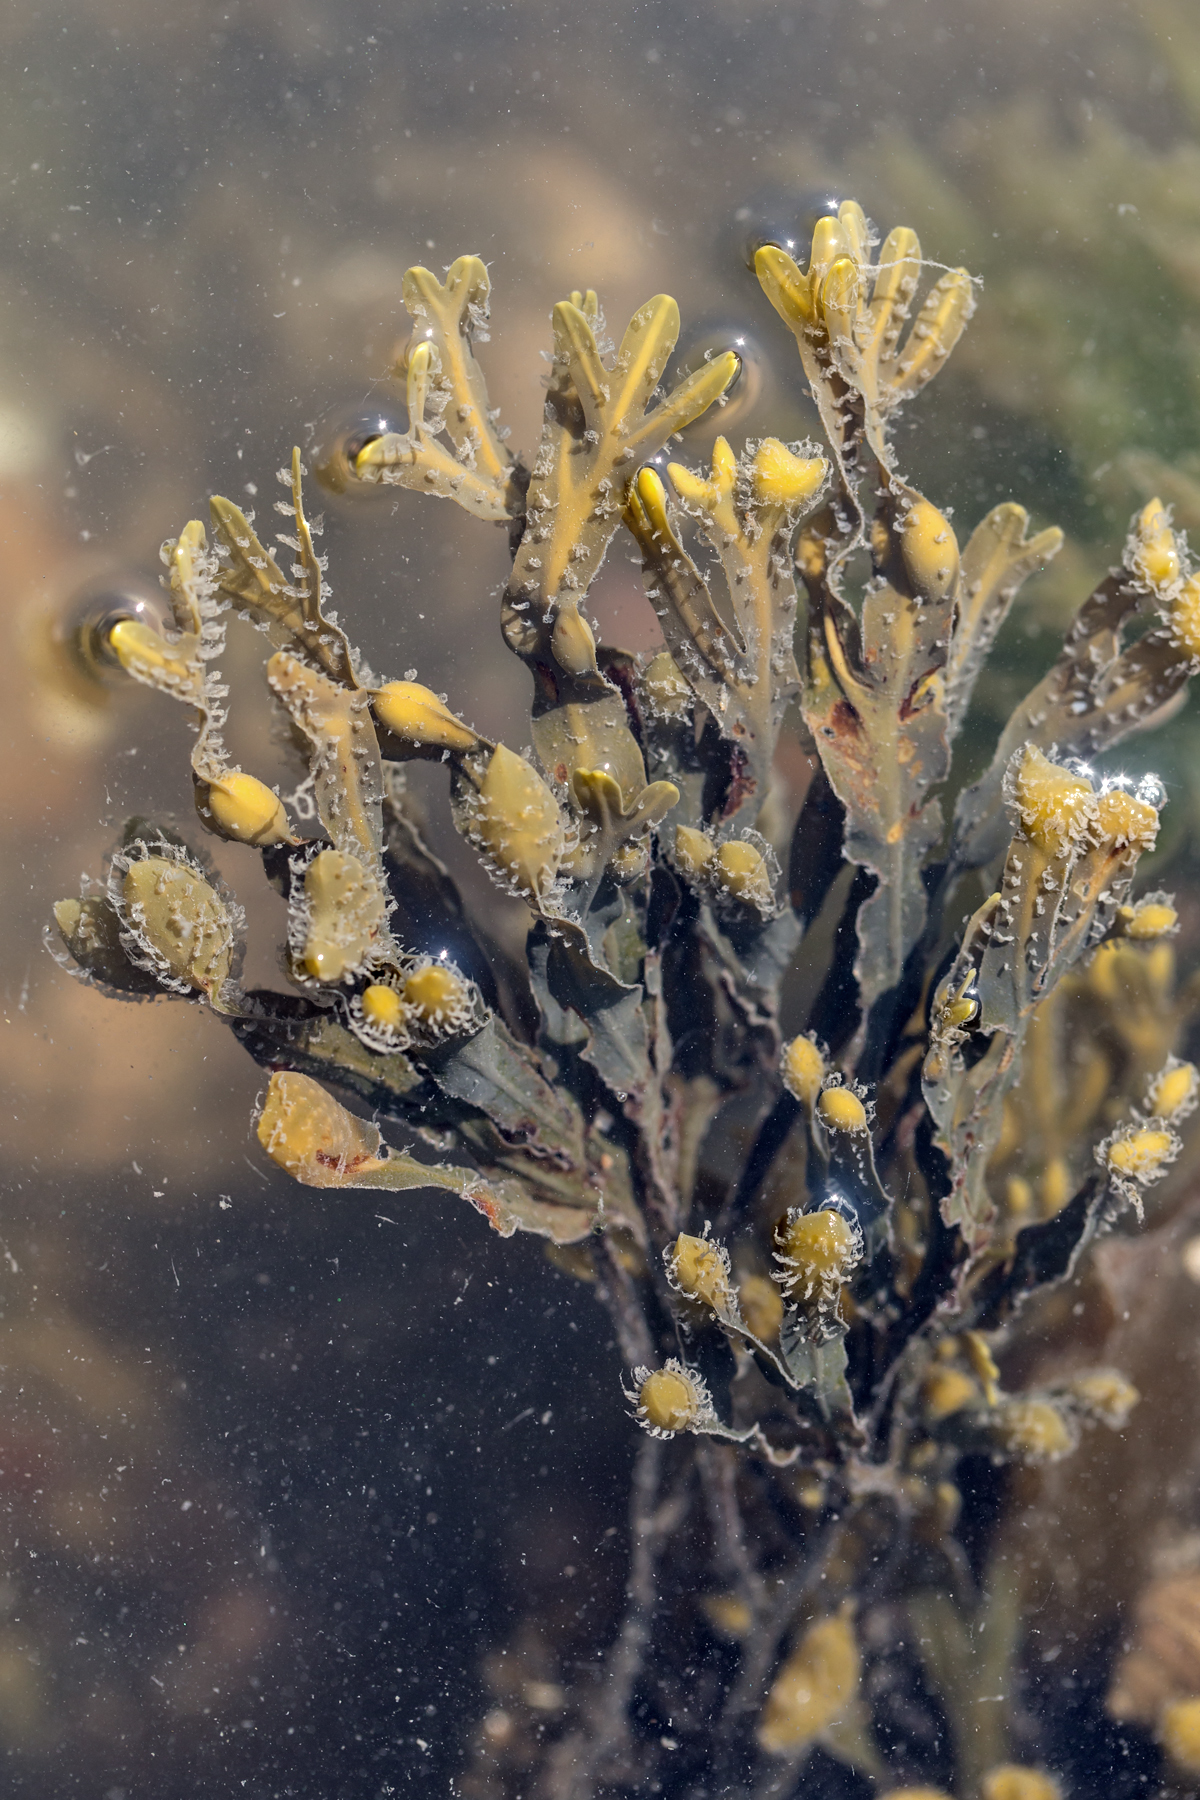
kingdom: Chromista
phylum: Ochrophyta
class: Phaeophyceae
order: Fucales
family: Fucaceae
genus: Fucus
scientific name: Fucus vesiculosus
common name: Bladder wrack
